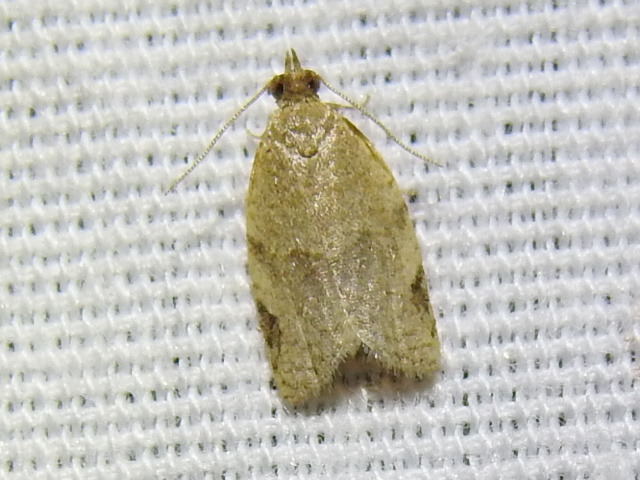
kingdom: Animalia
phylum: Arthropoda
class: Insecta
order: Lepidoptera
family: Tortricidae
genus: Clepsis
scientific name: Clepsis virescana
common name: Greenish apple moth
